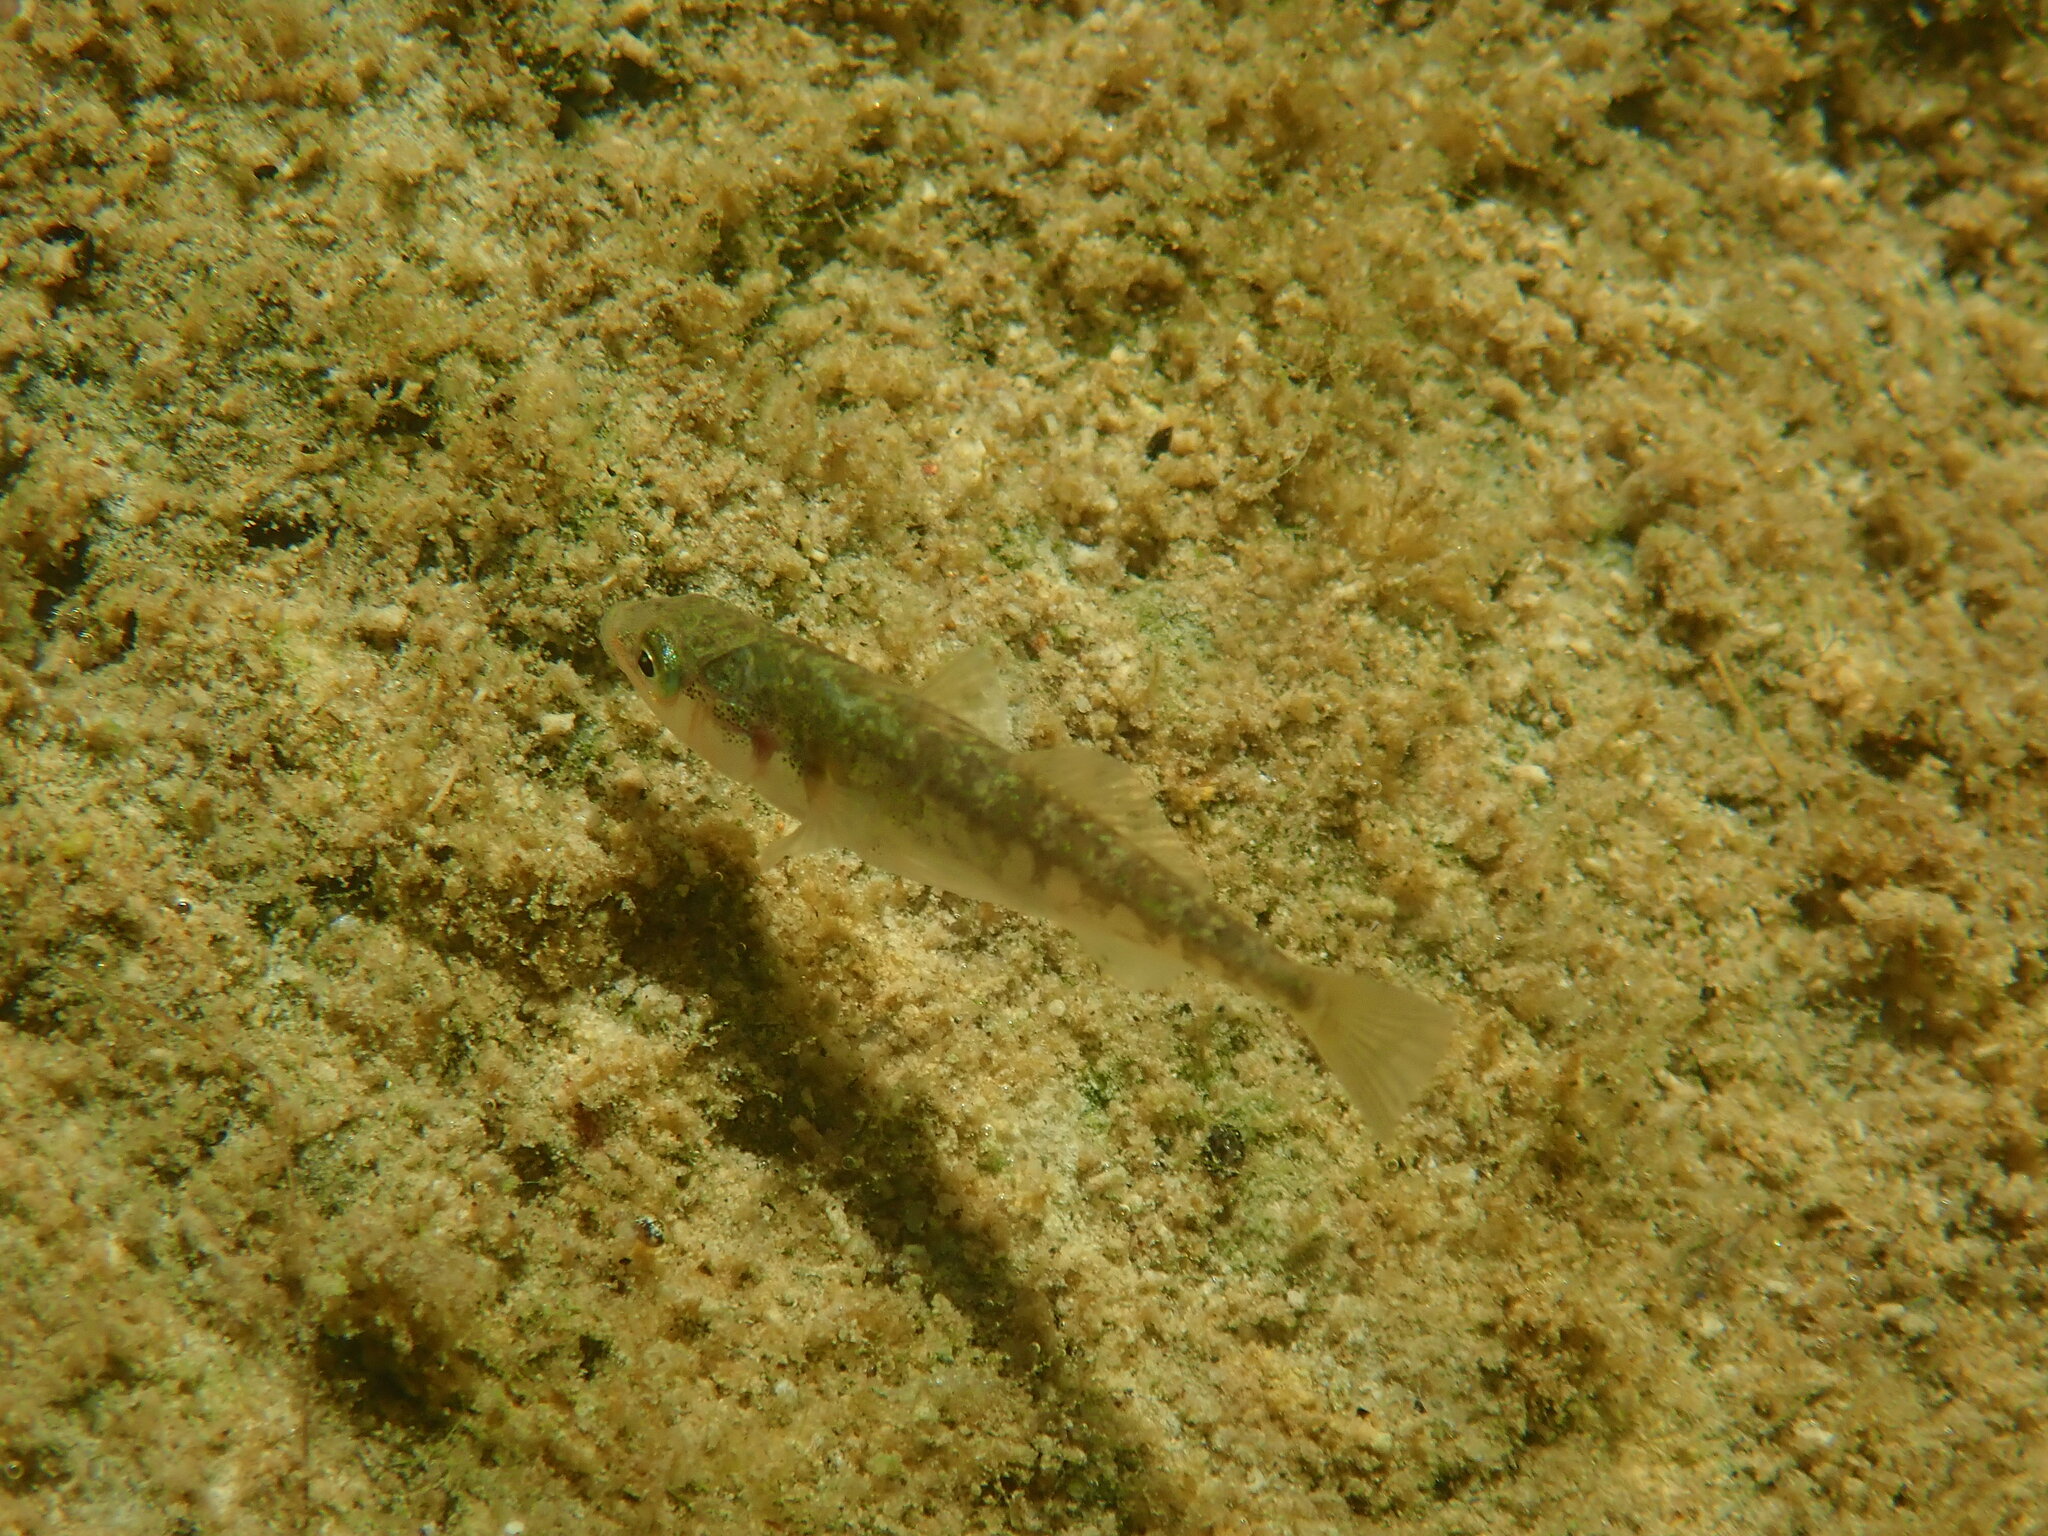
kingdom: Animalia
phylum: Chordata
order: Gasterosteiformes
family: Gasterosteidae
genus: Gasterosteus
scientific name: Gasterosteus aculeatus
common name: Three-spined stickleback
